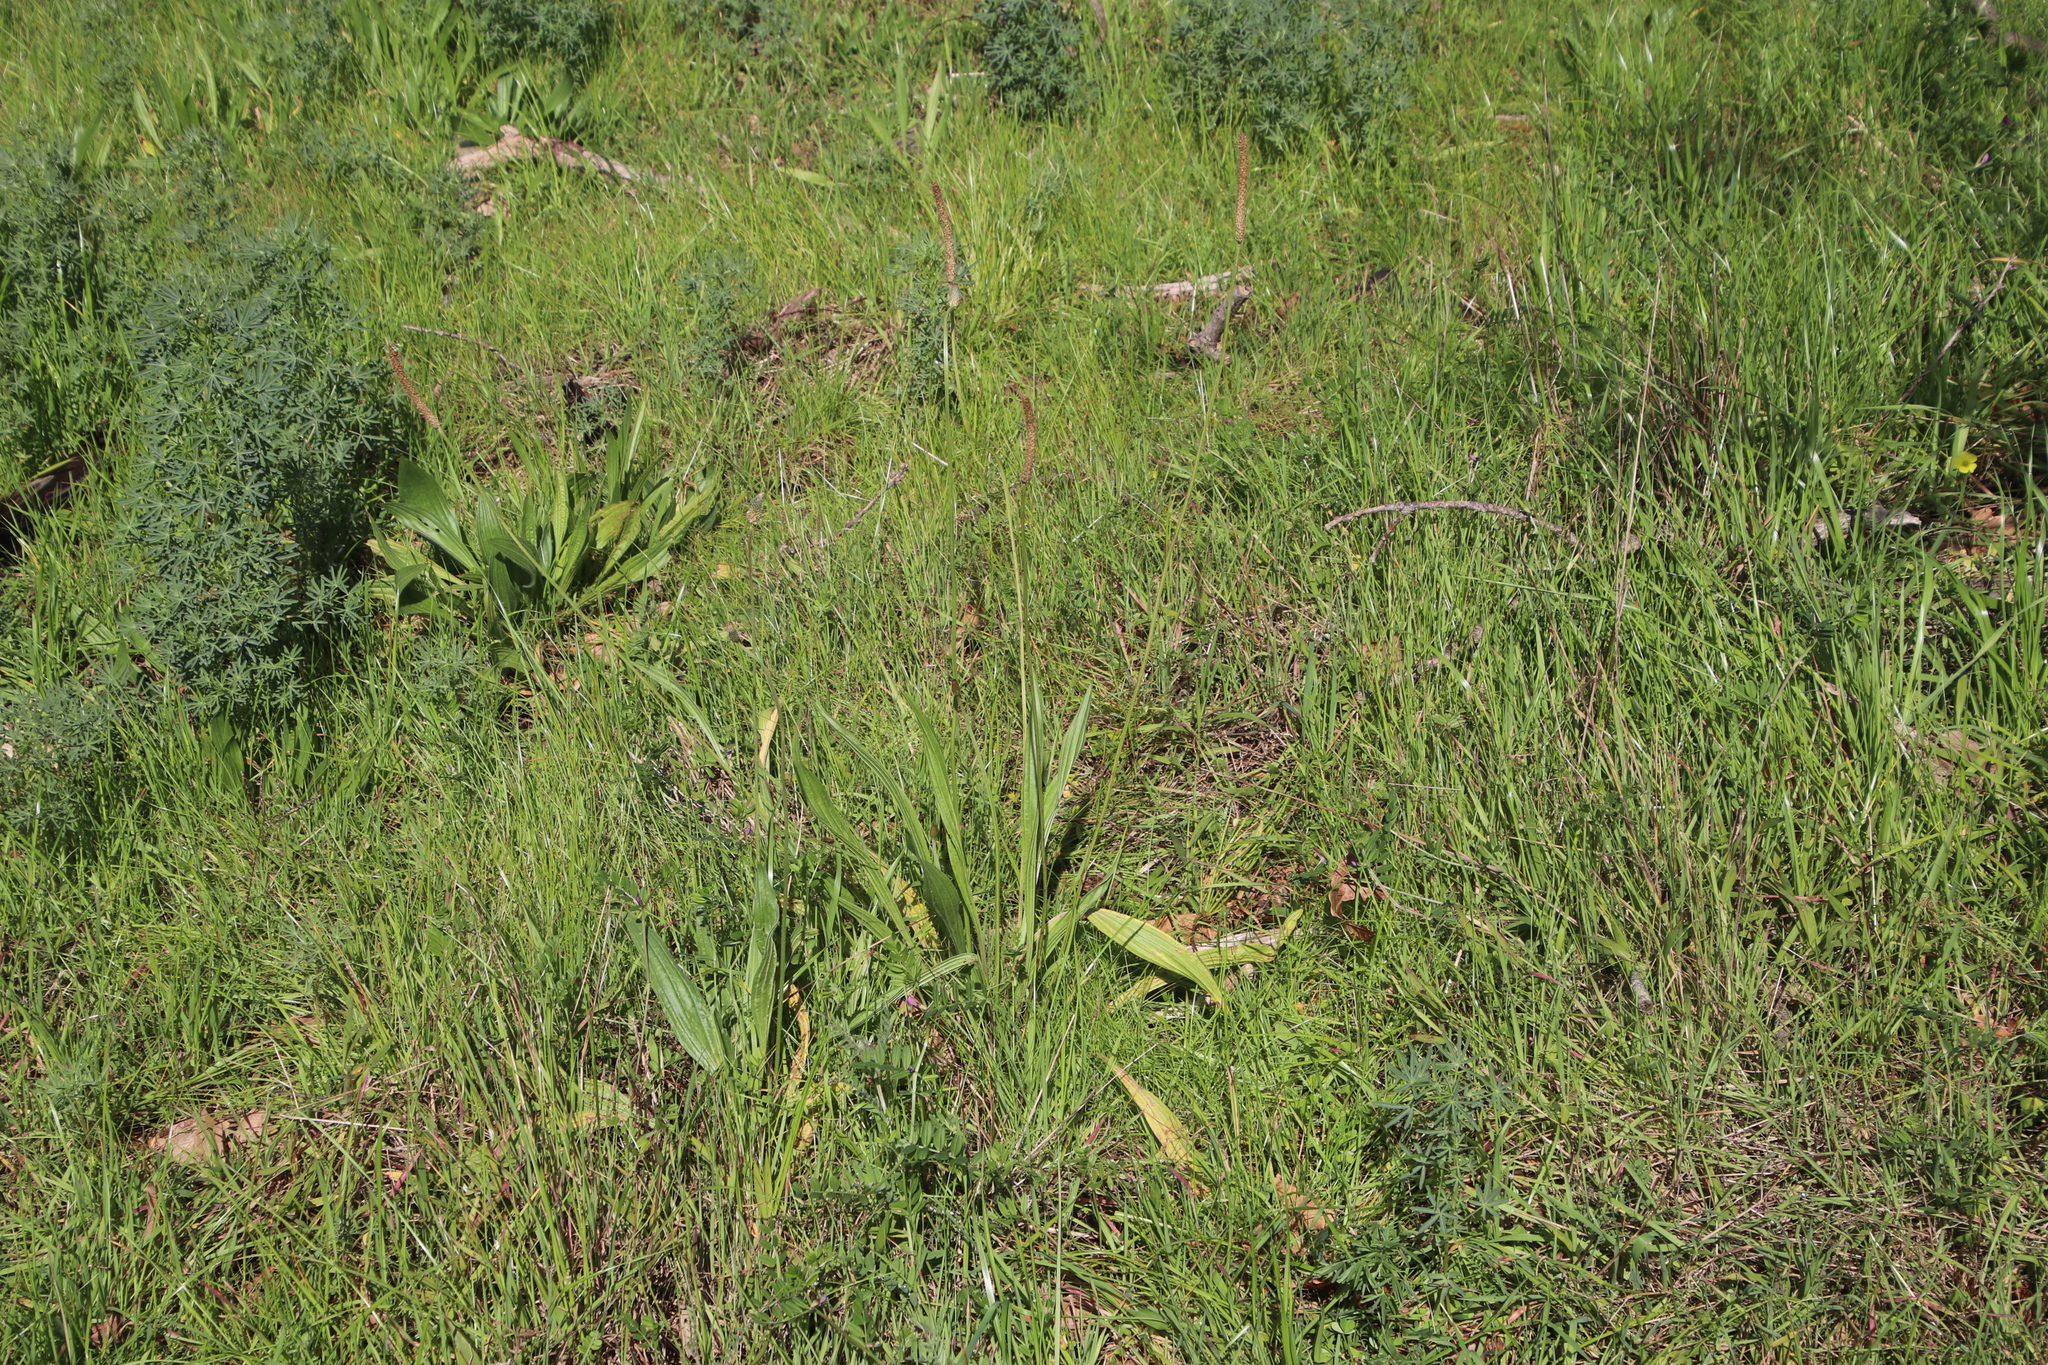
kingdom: Plantae
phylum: Tracheophyta
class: Magnoliopsida
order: Lamiales
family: Plantaginaceae
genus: Plantago
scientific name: Plantago lanceolata
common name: Ribwort plantain
